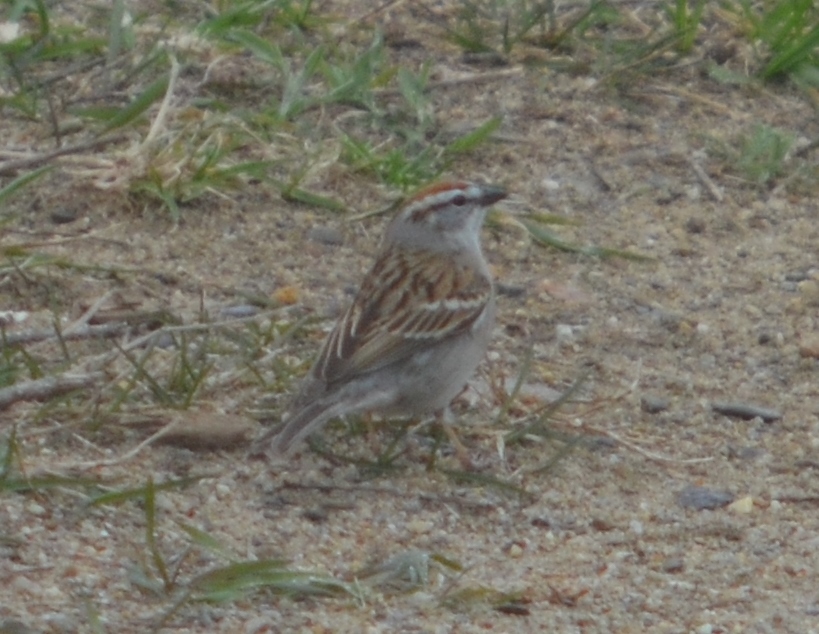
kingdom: Animalia
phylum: Chordata
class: Aves
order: Passeriformes
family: Passerellidae
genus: Spizella
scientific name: Spizella passerina
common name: Chipping sparrow
